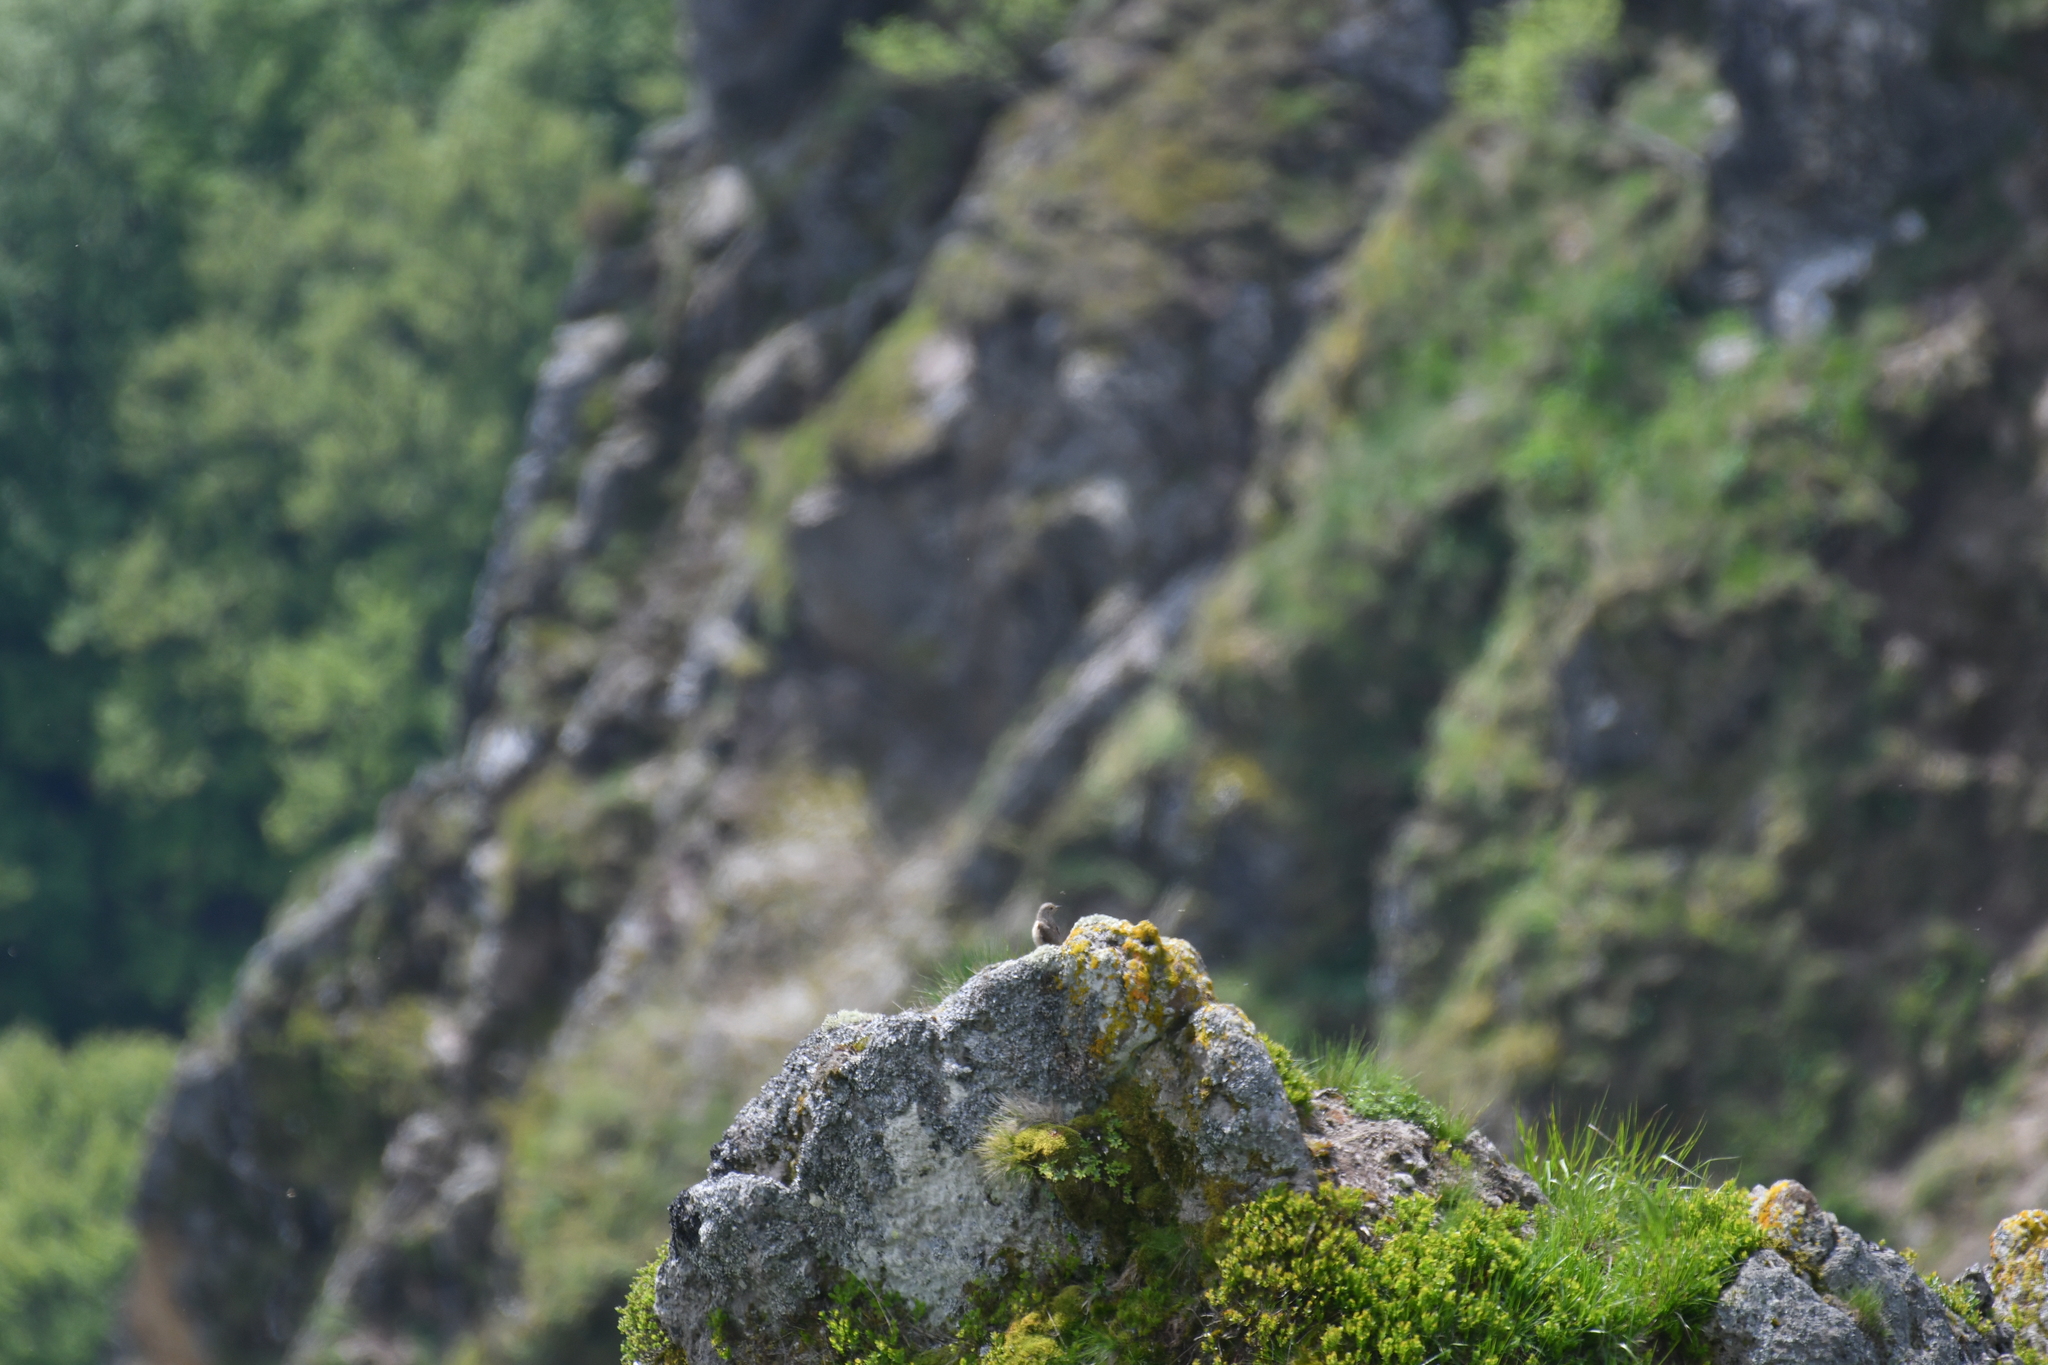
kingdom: Animalia
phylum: Chordata
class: Aves
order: Passeriformes
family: Muscicapidae
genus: Monticola
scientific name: Monticola saxatilis
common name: Rufous-tailed rock thrush
